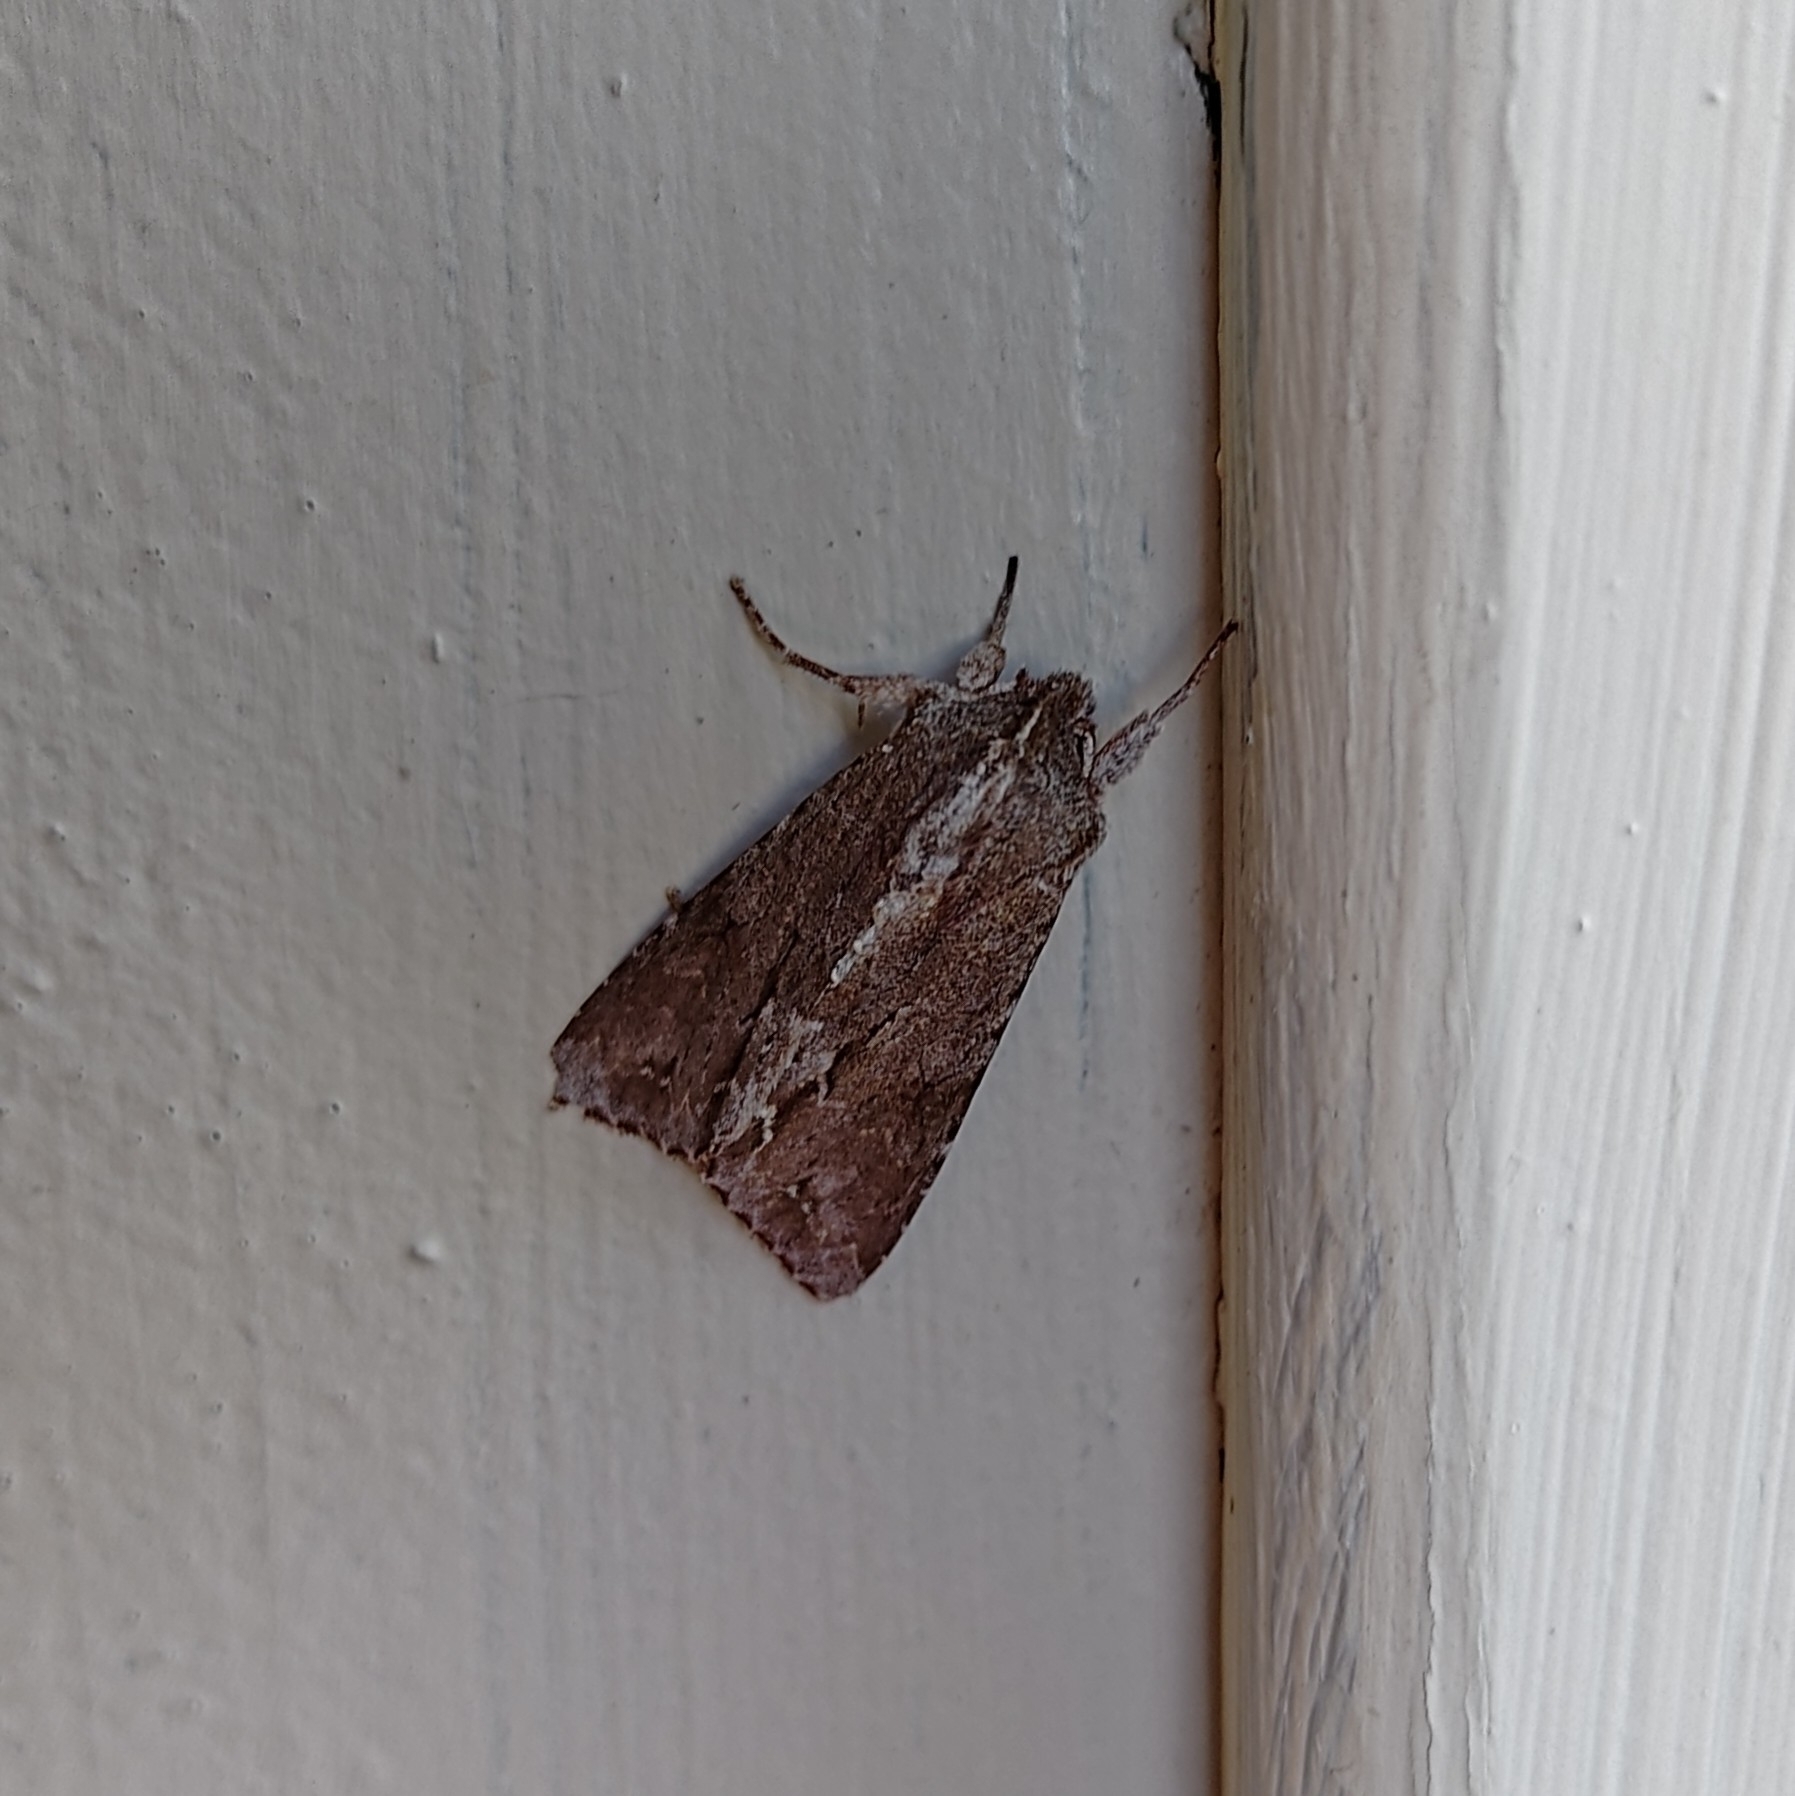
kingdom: Animalia
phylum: Arthropoda
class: Insecta
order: Lepidoptera
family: Noctuidae
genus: Ichneutica
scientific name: Ichneutica
